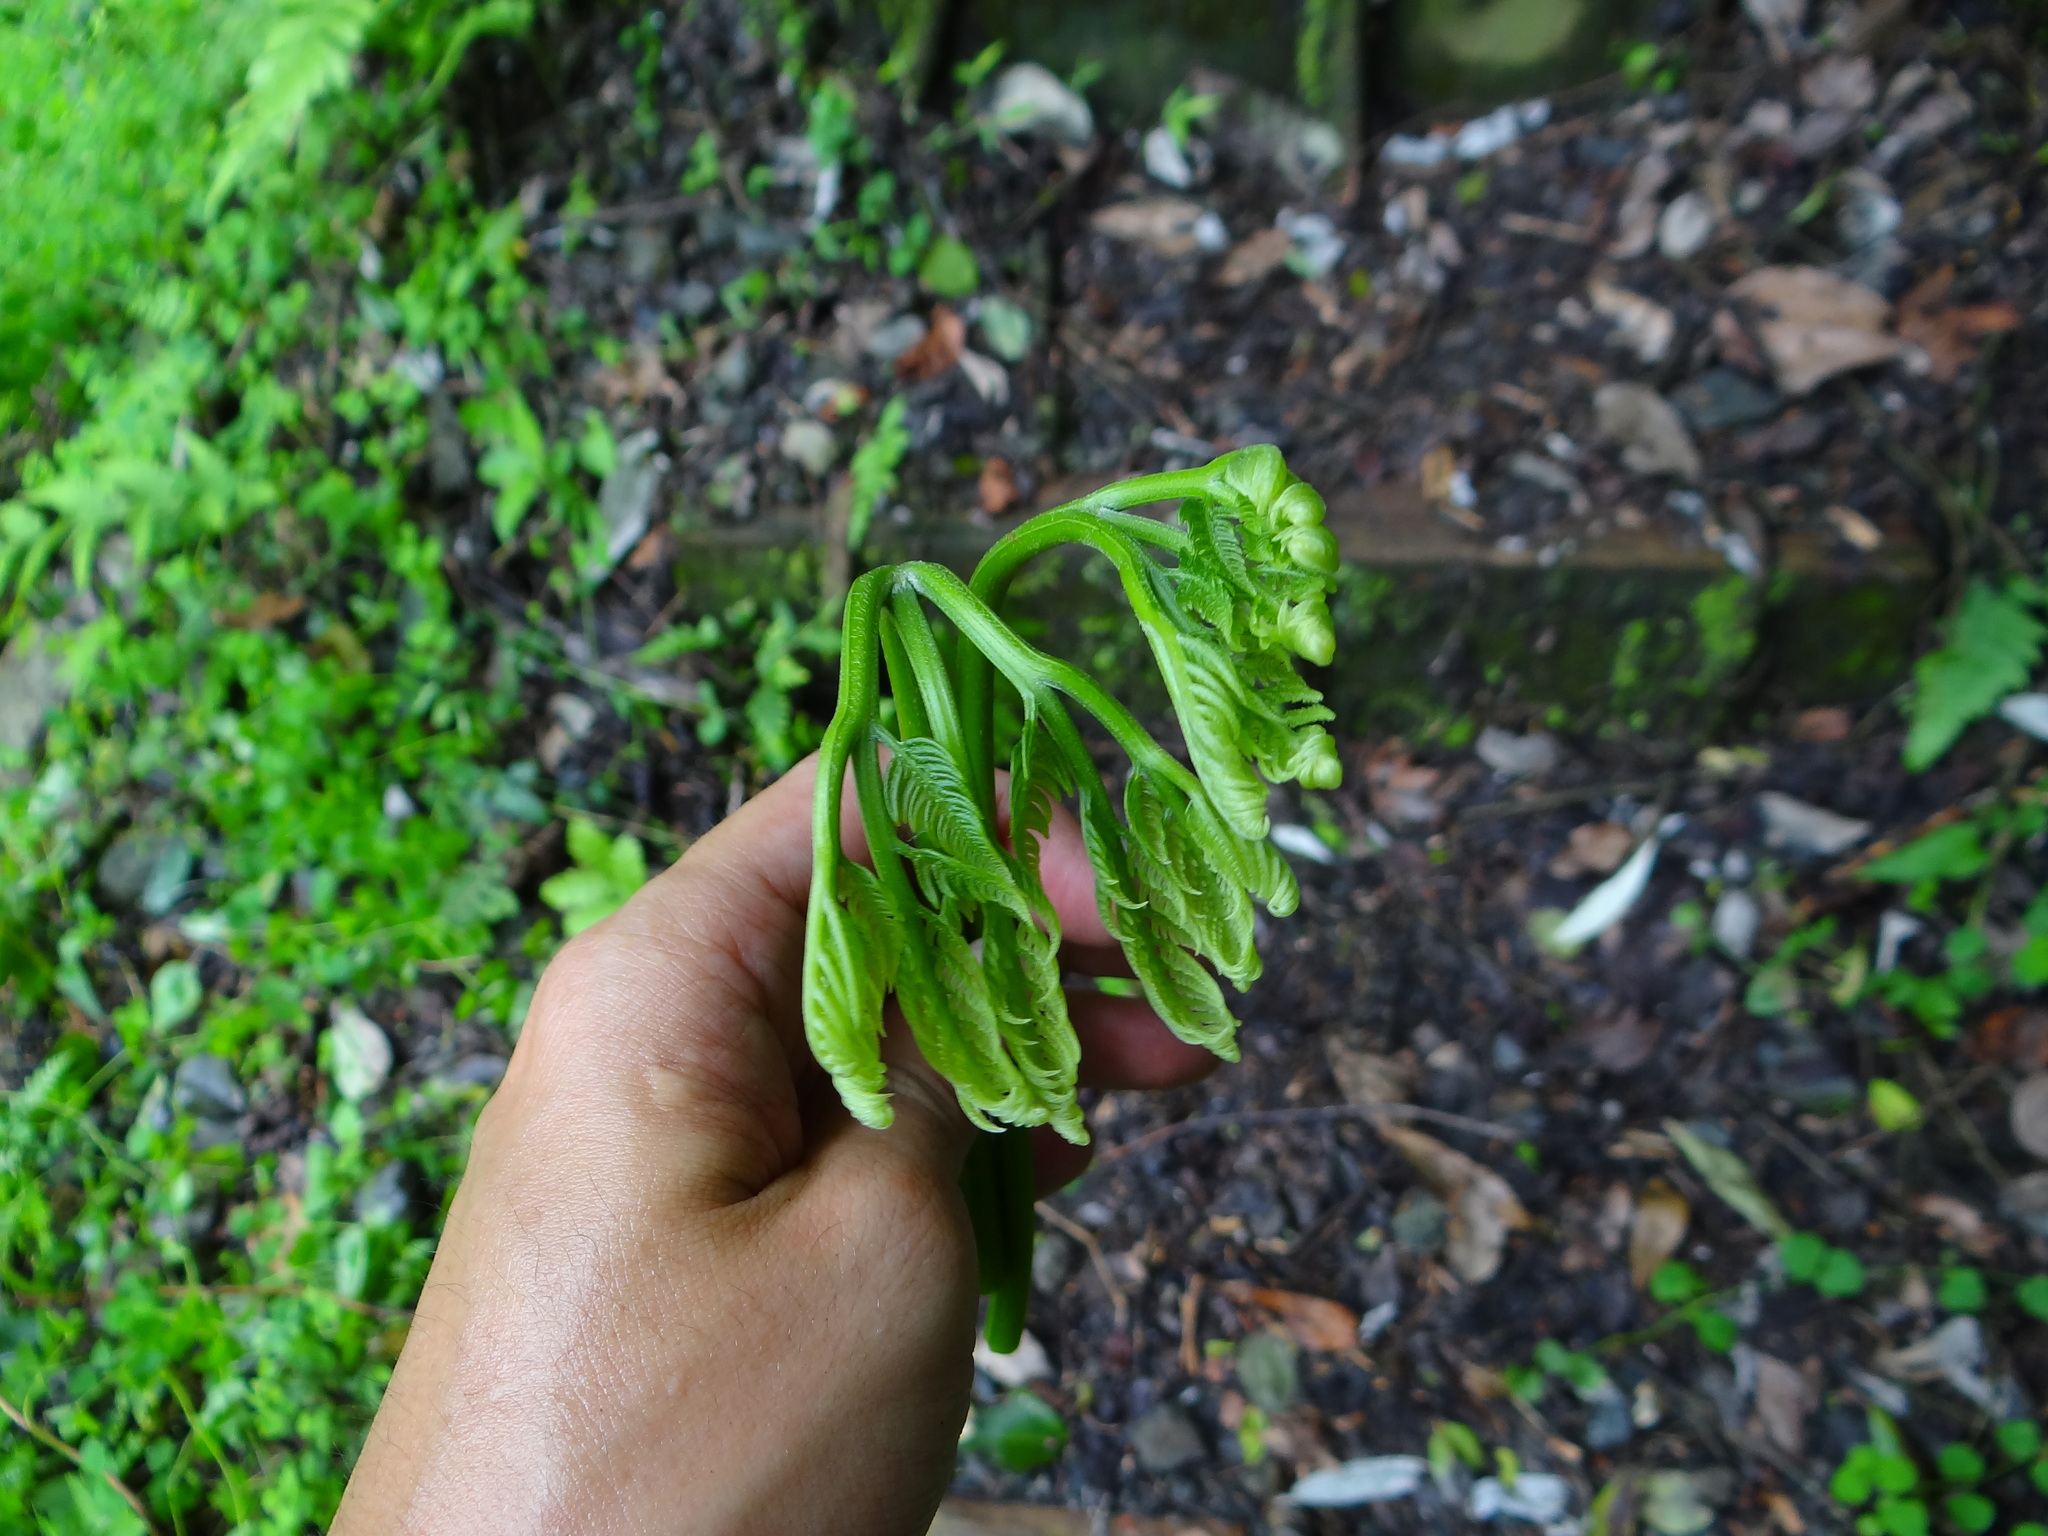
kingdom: Plantae
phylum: Tracheophyta
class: Polypodiopsida
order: Polypodiales
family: Pteridaceae
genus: Pteris
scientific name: Pteris wallichiana
